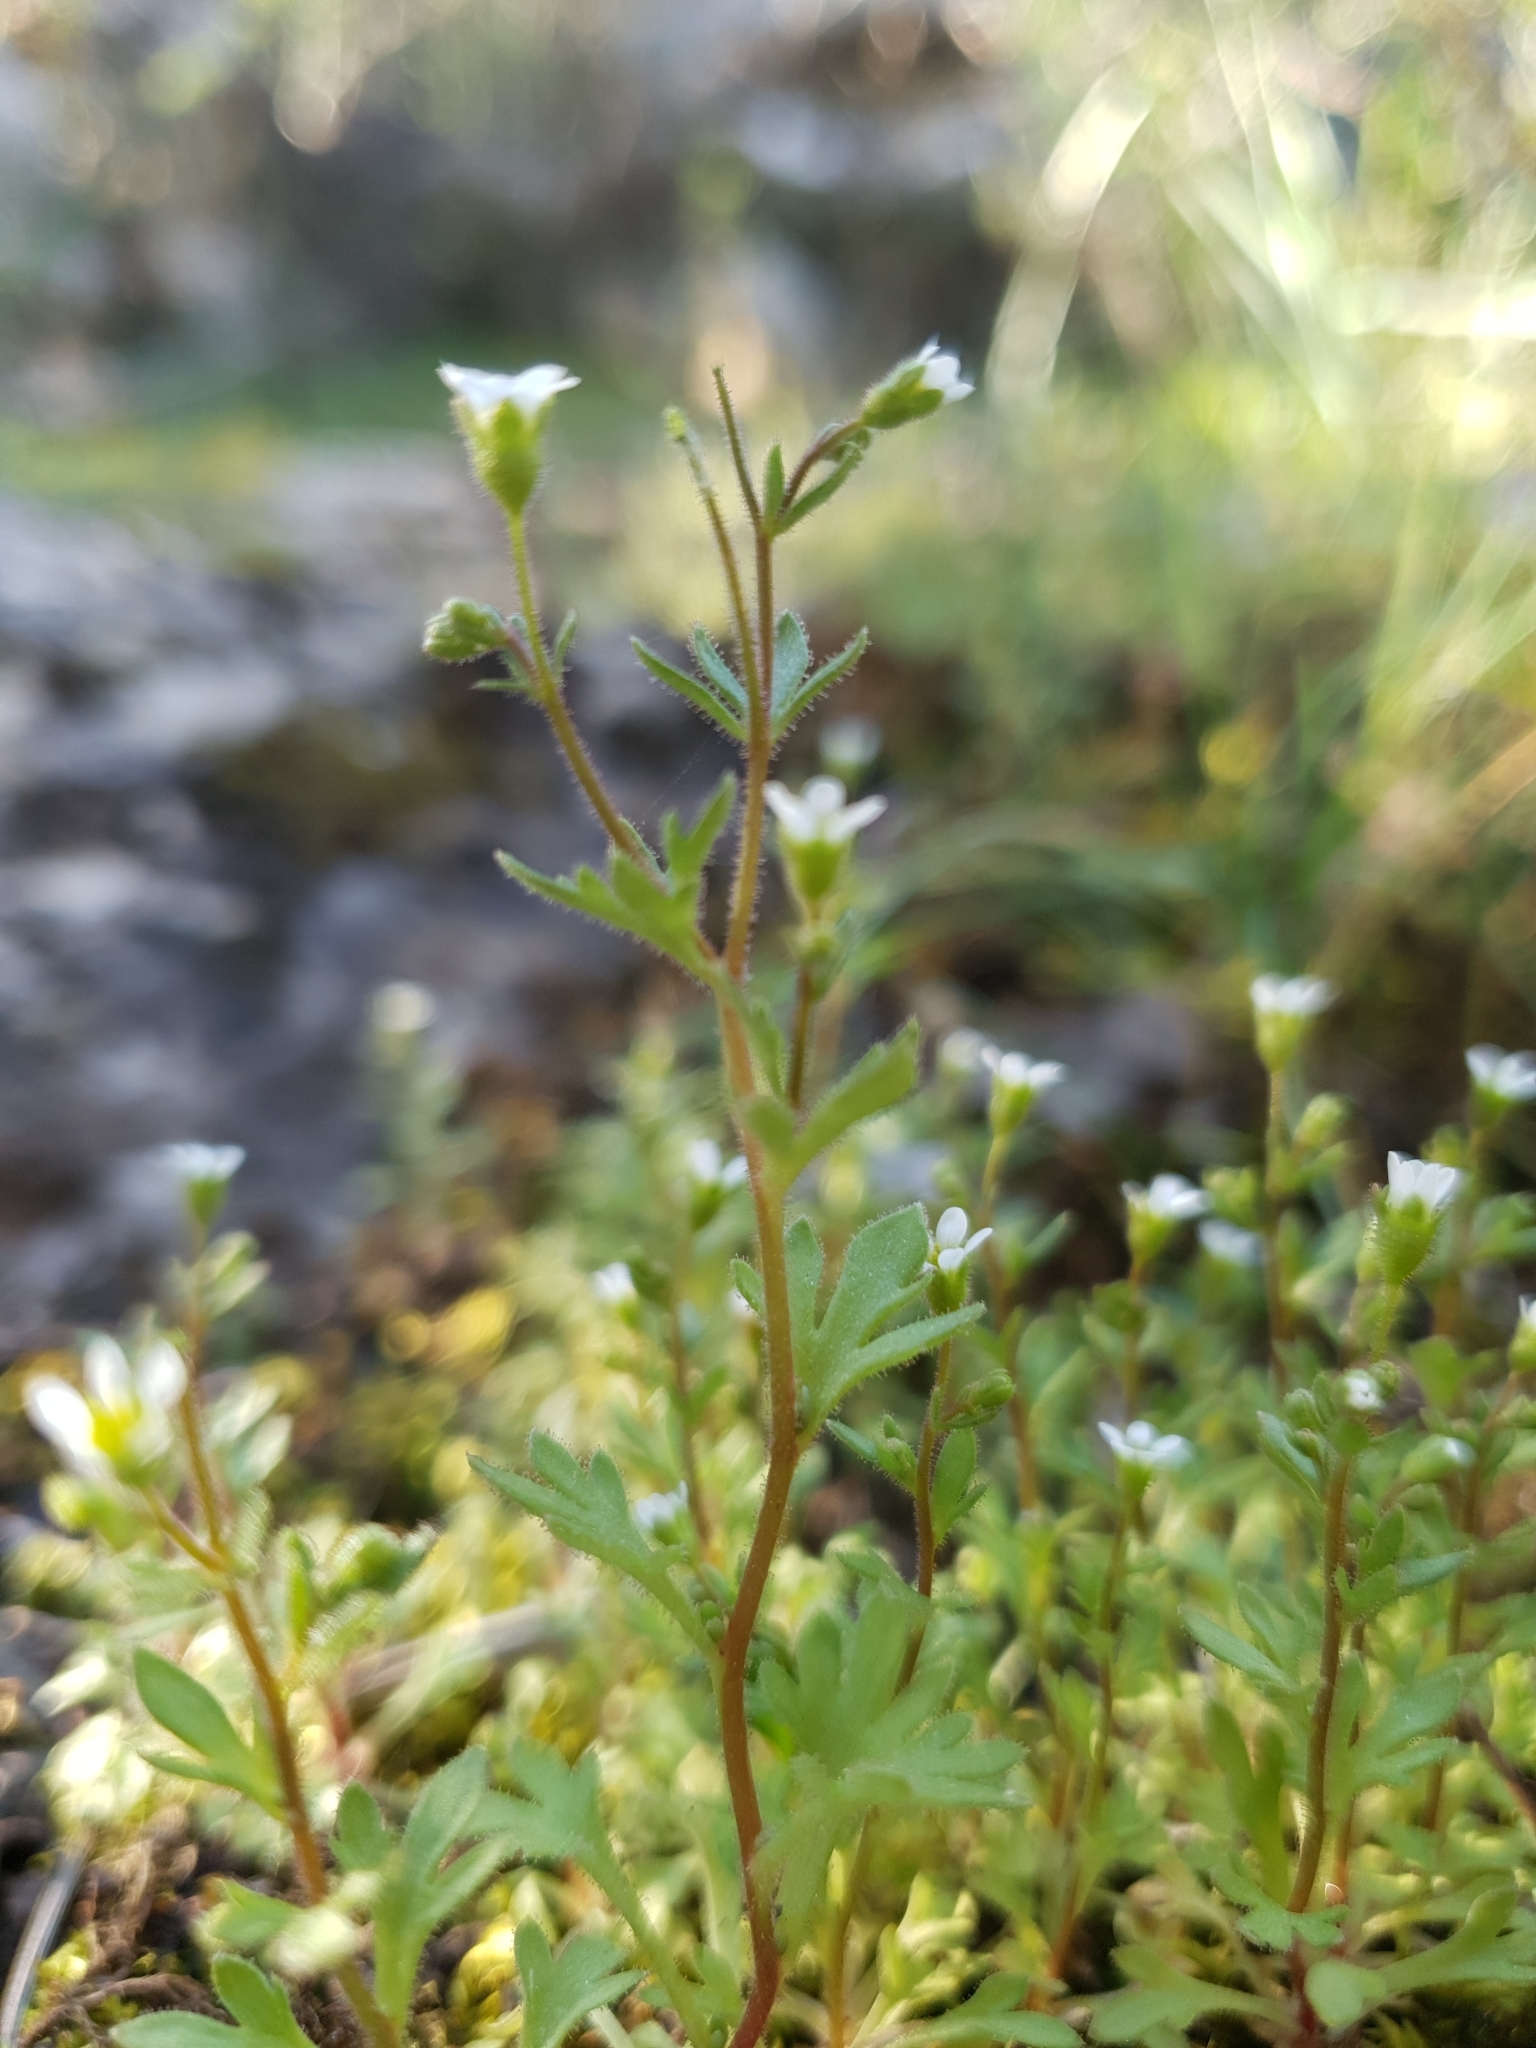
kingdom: Plantae
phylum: Tracheophyta
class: Magnoliopsida
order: Saxifragales
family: Saxifragaceae
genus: Saxifraga
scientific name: Saxifraga tridactylites
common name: Rue-leaved saxifrage
